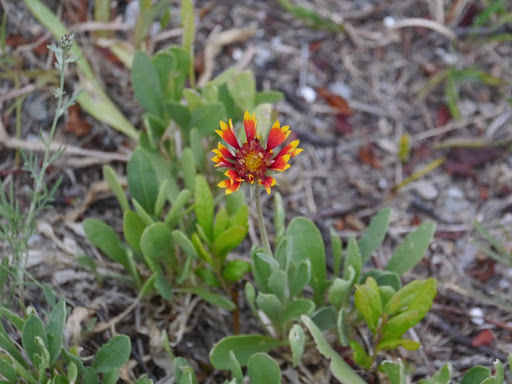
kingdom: Plantae
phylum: Tracheophyta
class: Magnoliopsida
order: Asterales
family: Asteraceae
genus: Gaillardia
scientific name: Gaillardia pulchella
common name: Firewheel
